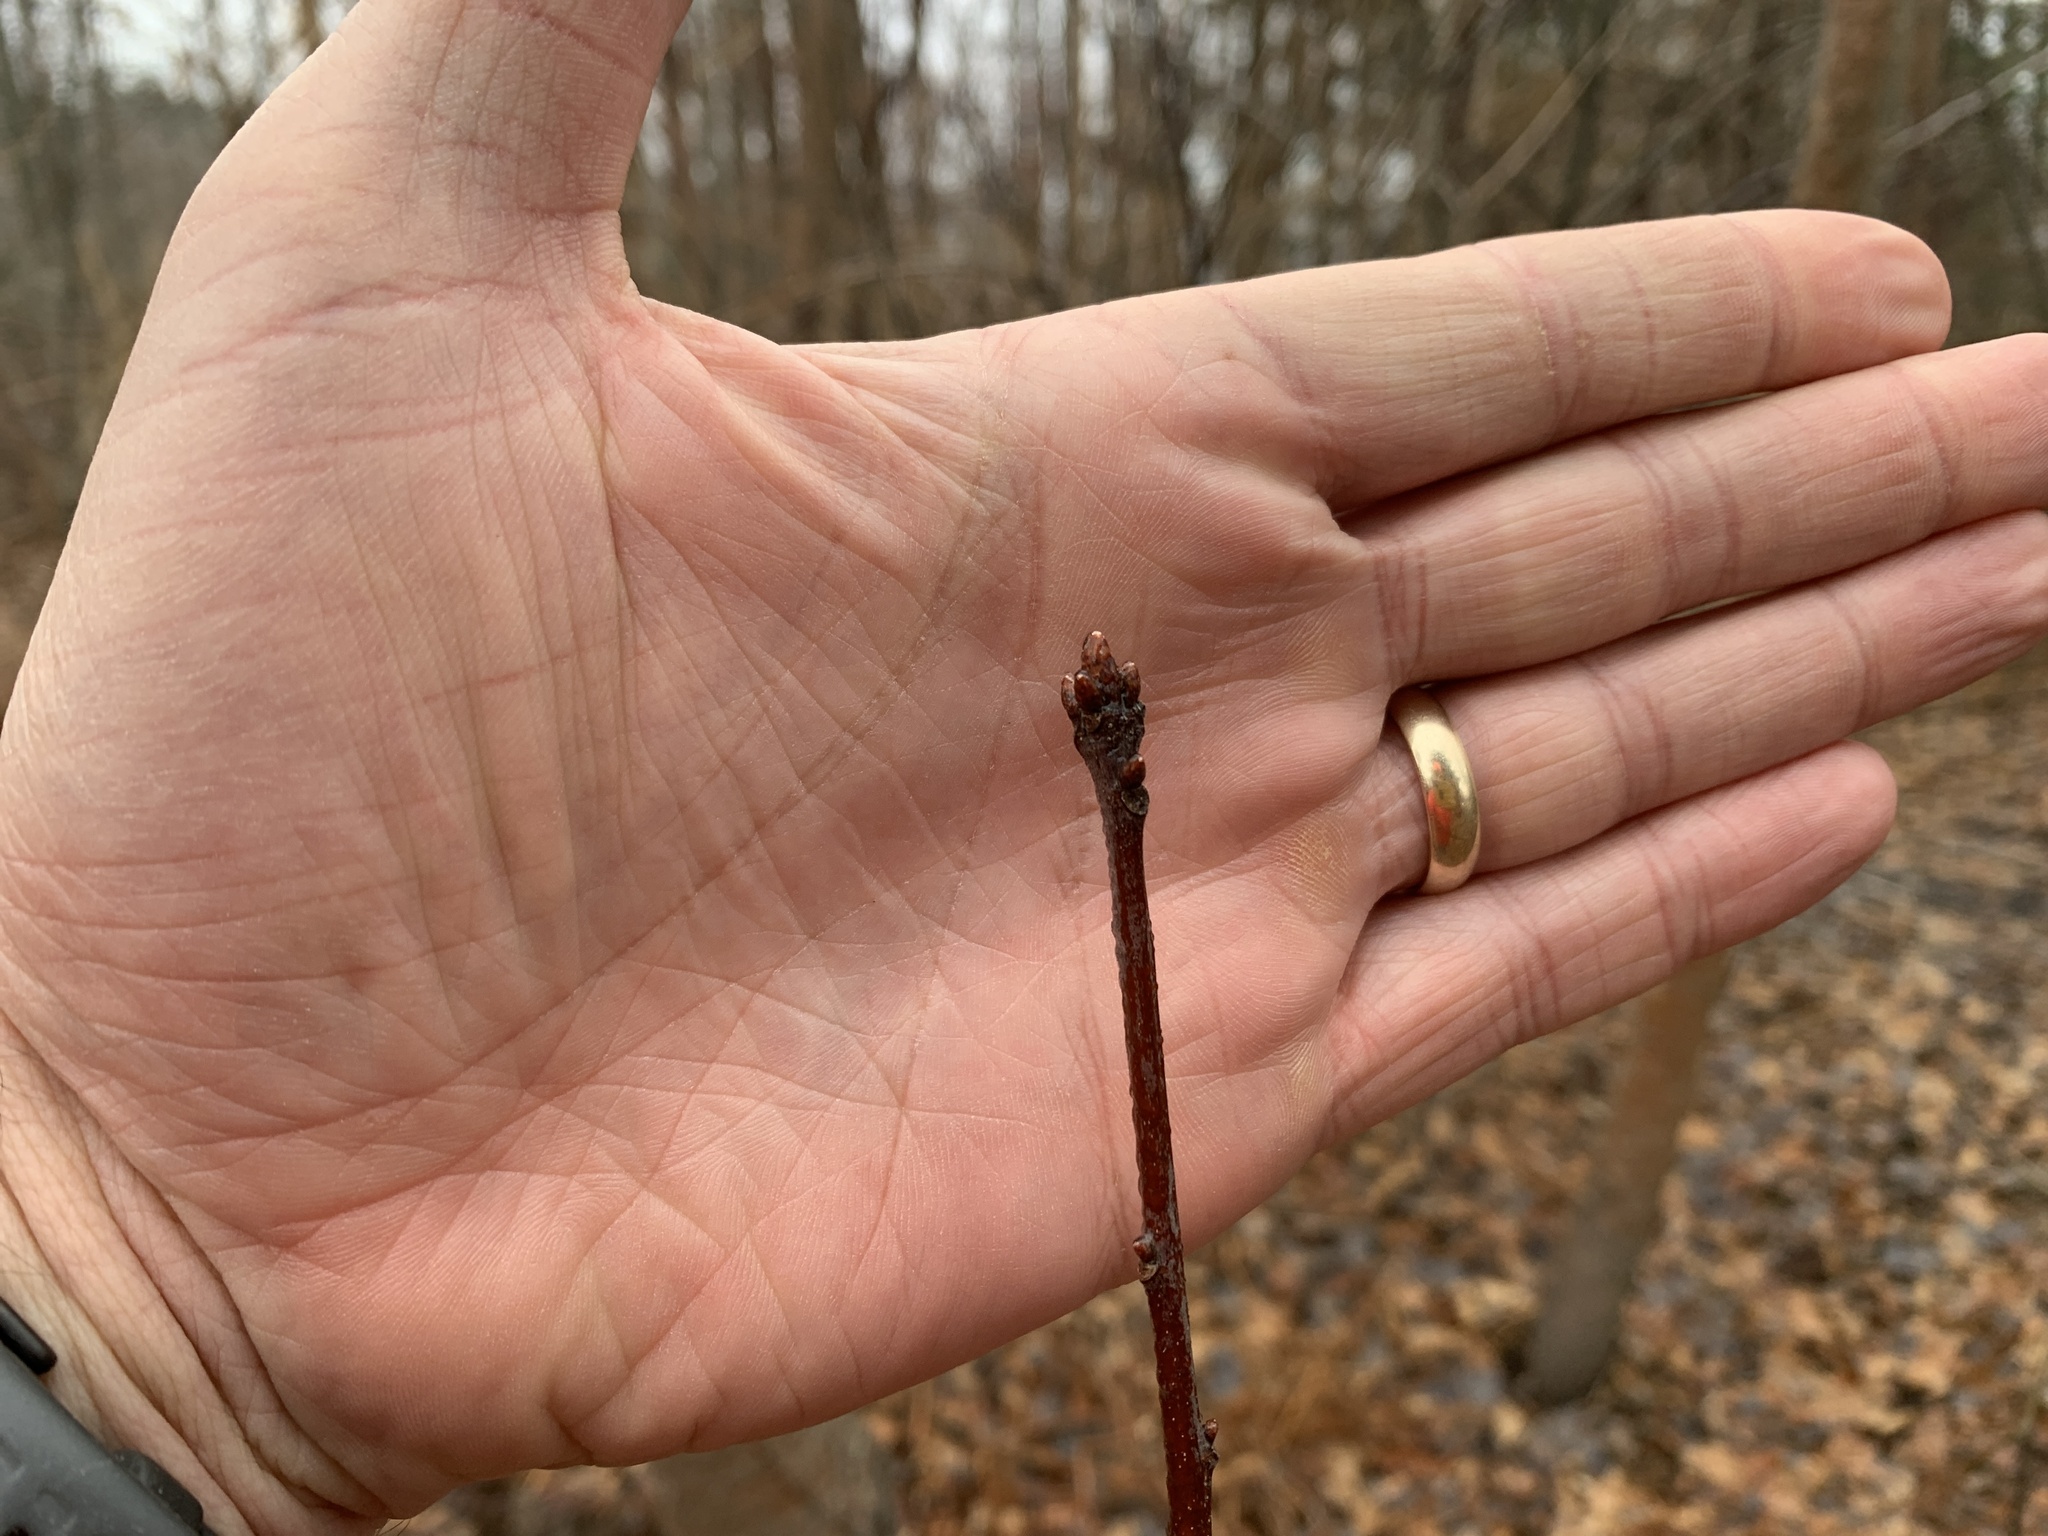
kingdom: Plantae
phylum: Tracheophyta
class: Magnoliopsida
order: Fagales
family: Fagaceae
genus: Quercus
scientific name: Quercus rubra
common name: Red oak
